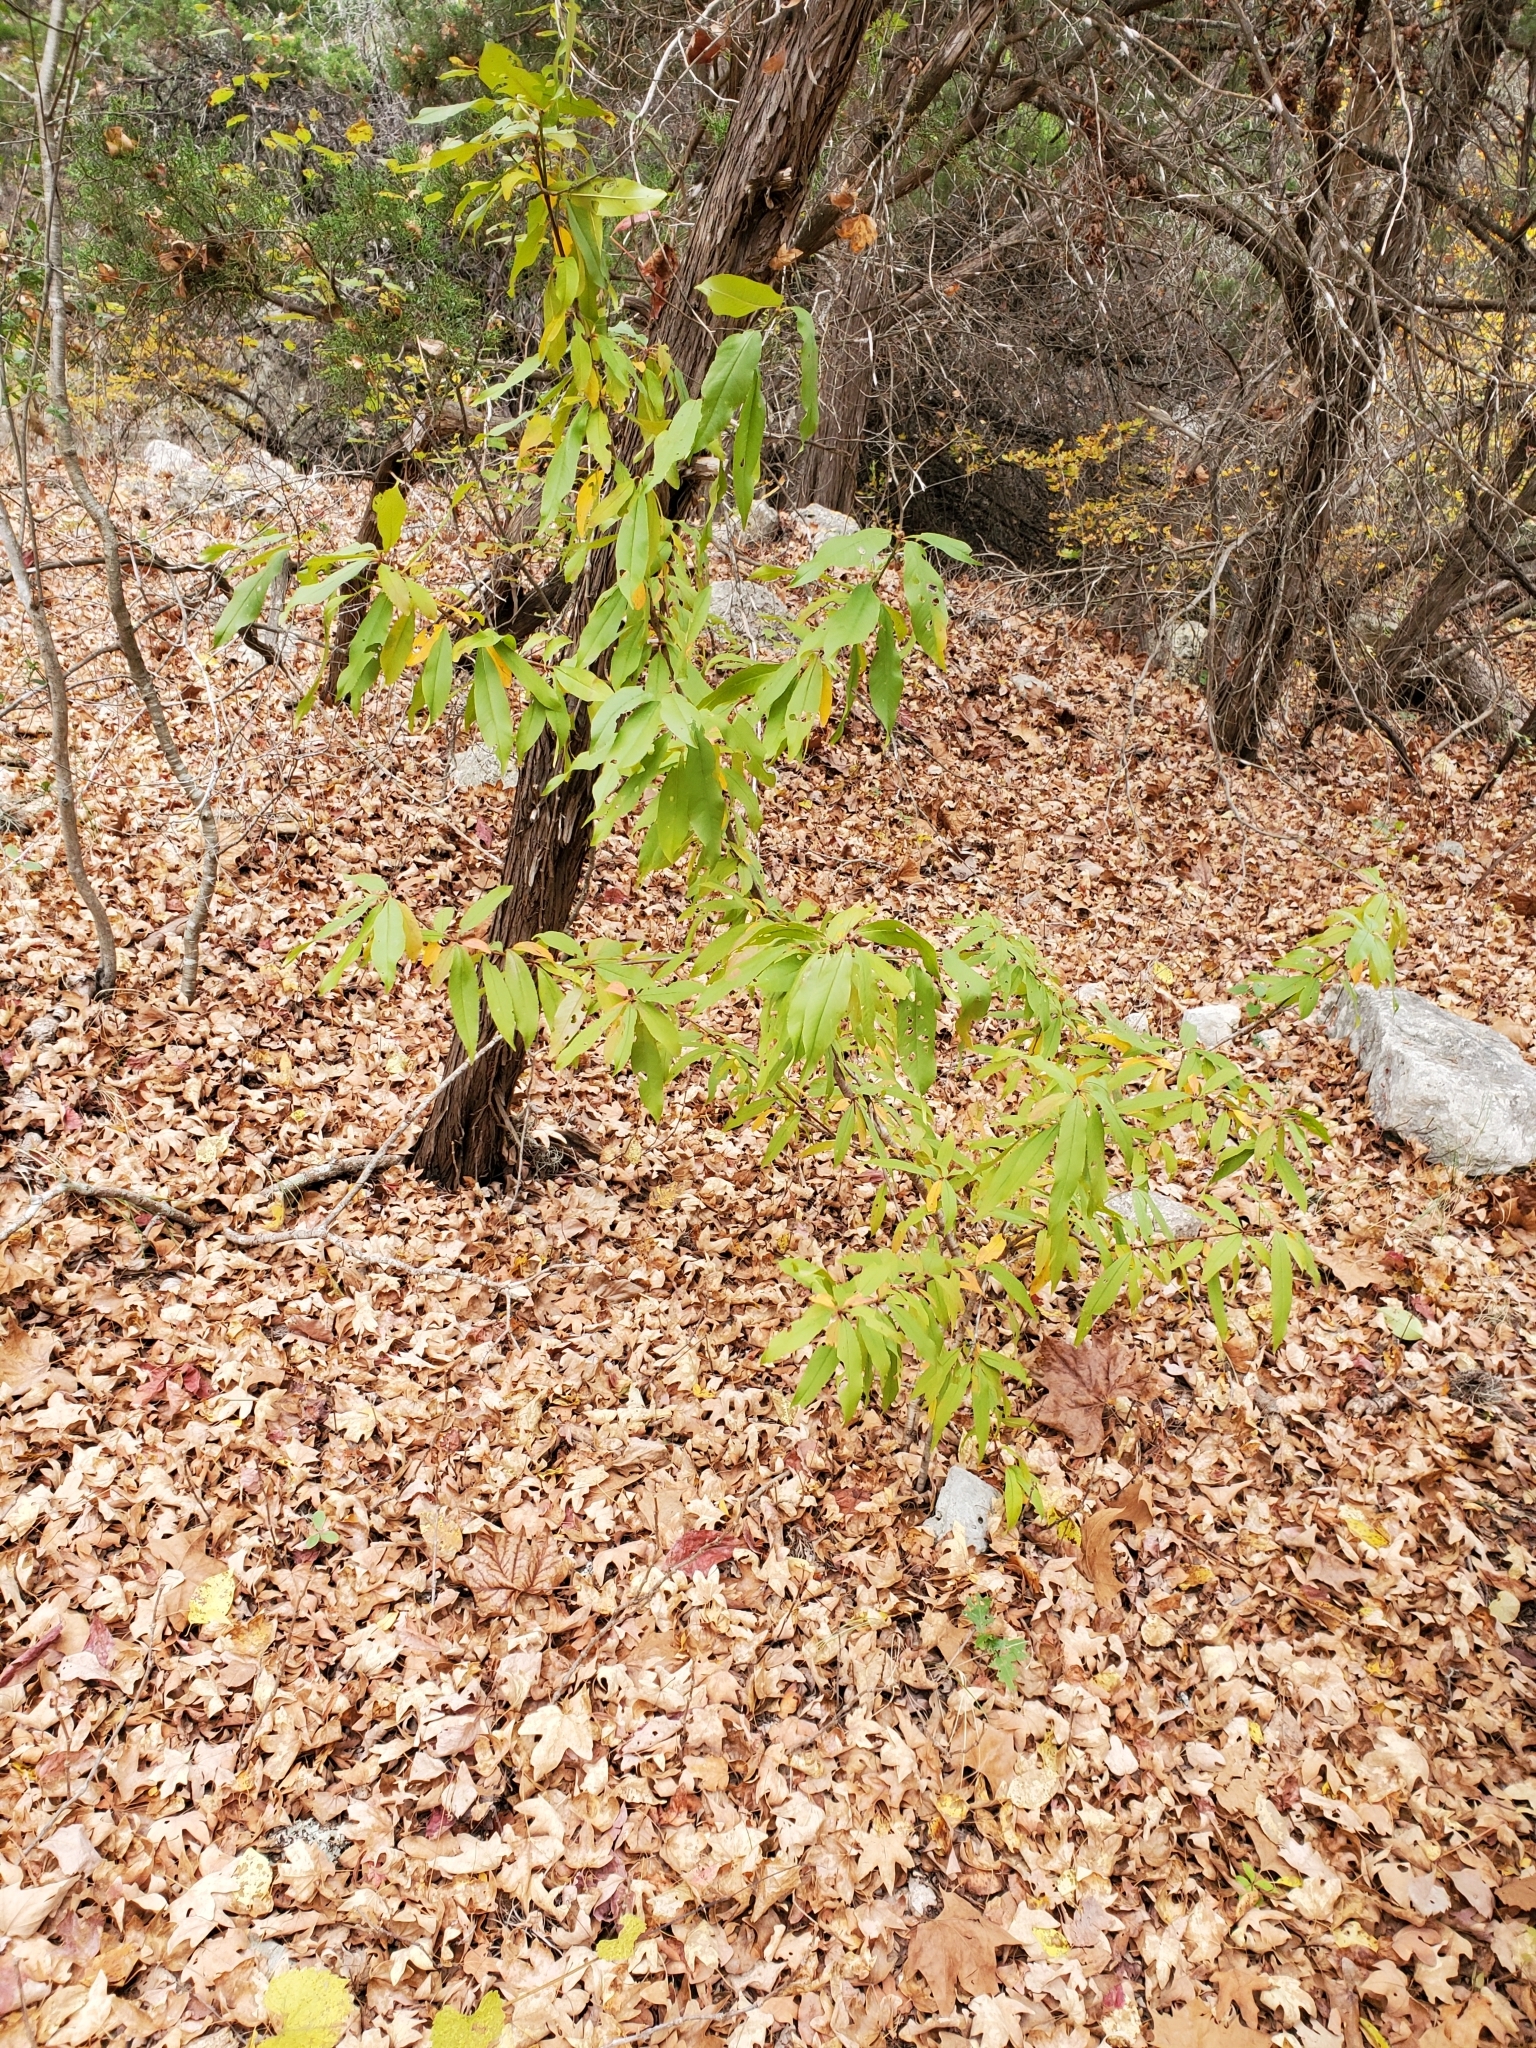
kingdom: Plantae
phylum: Tracheophyta
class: Magnoliopsida
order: Rosales
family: Rosaceae
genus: Prunus
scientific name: Prunus persica
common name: Peach
